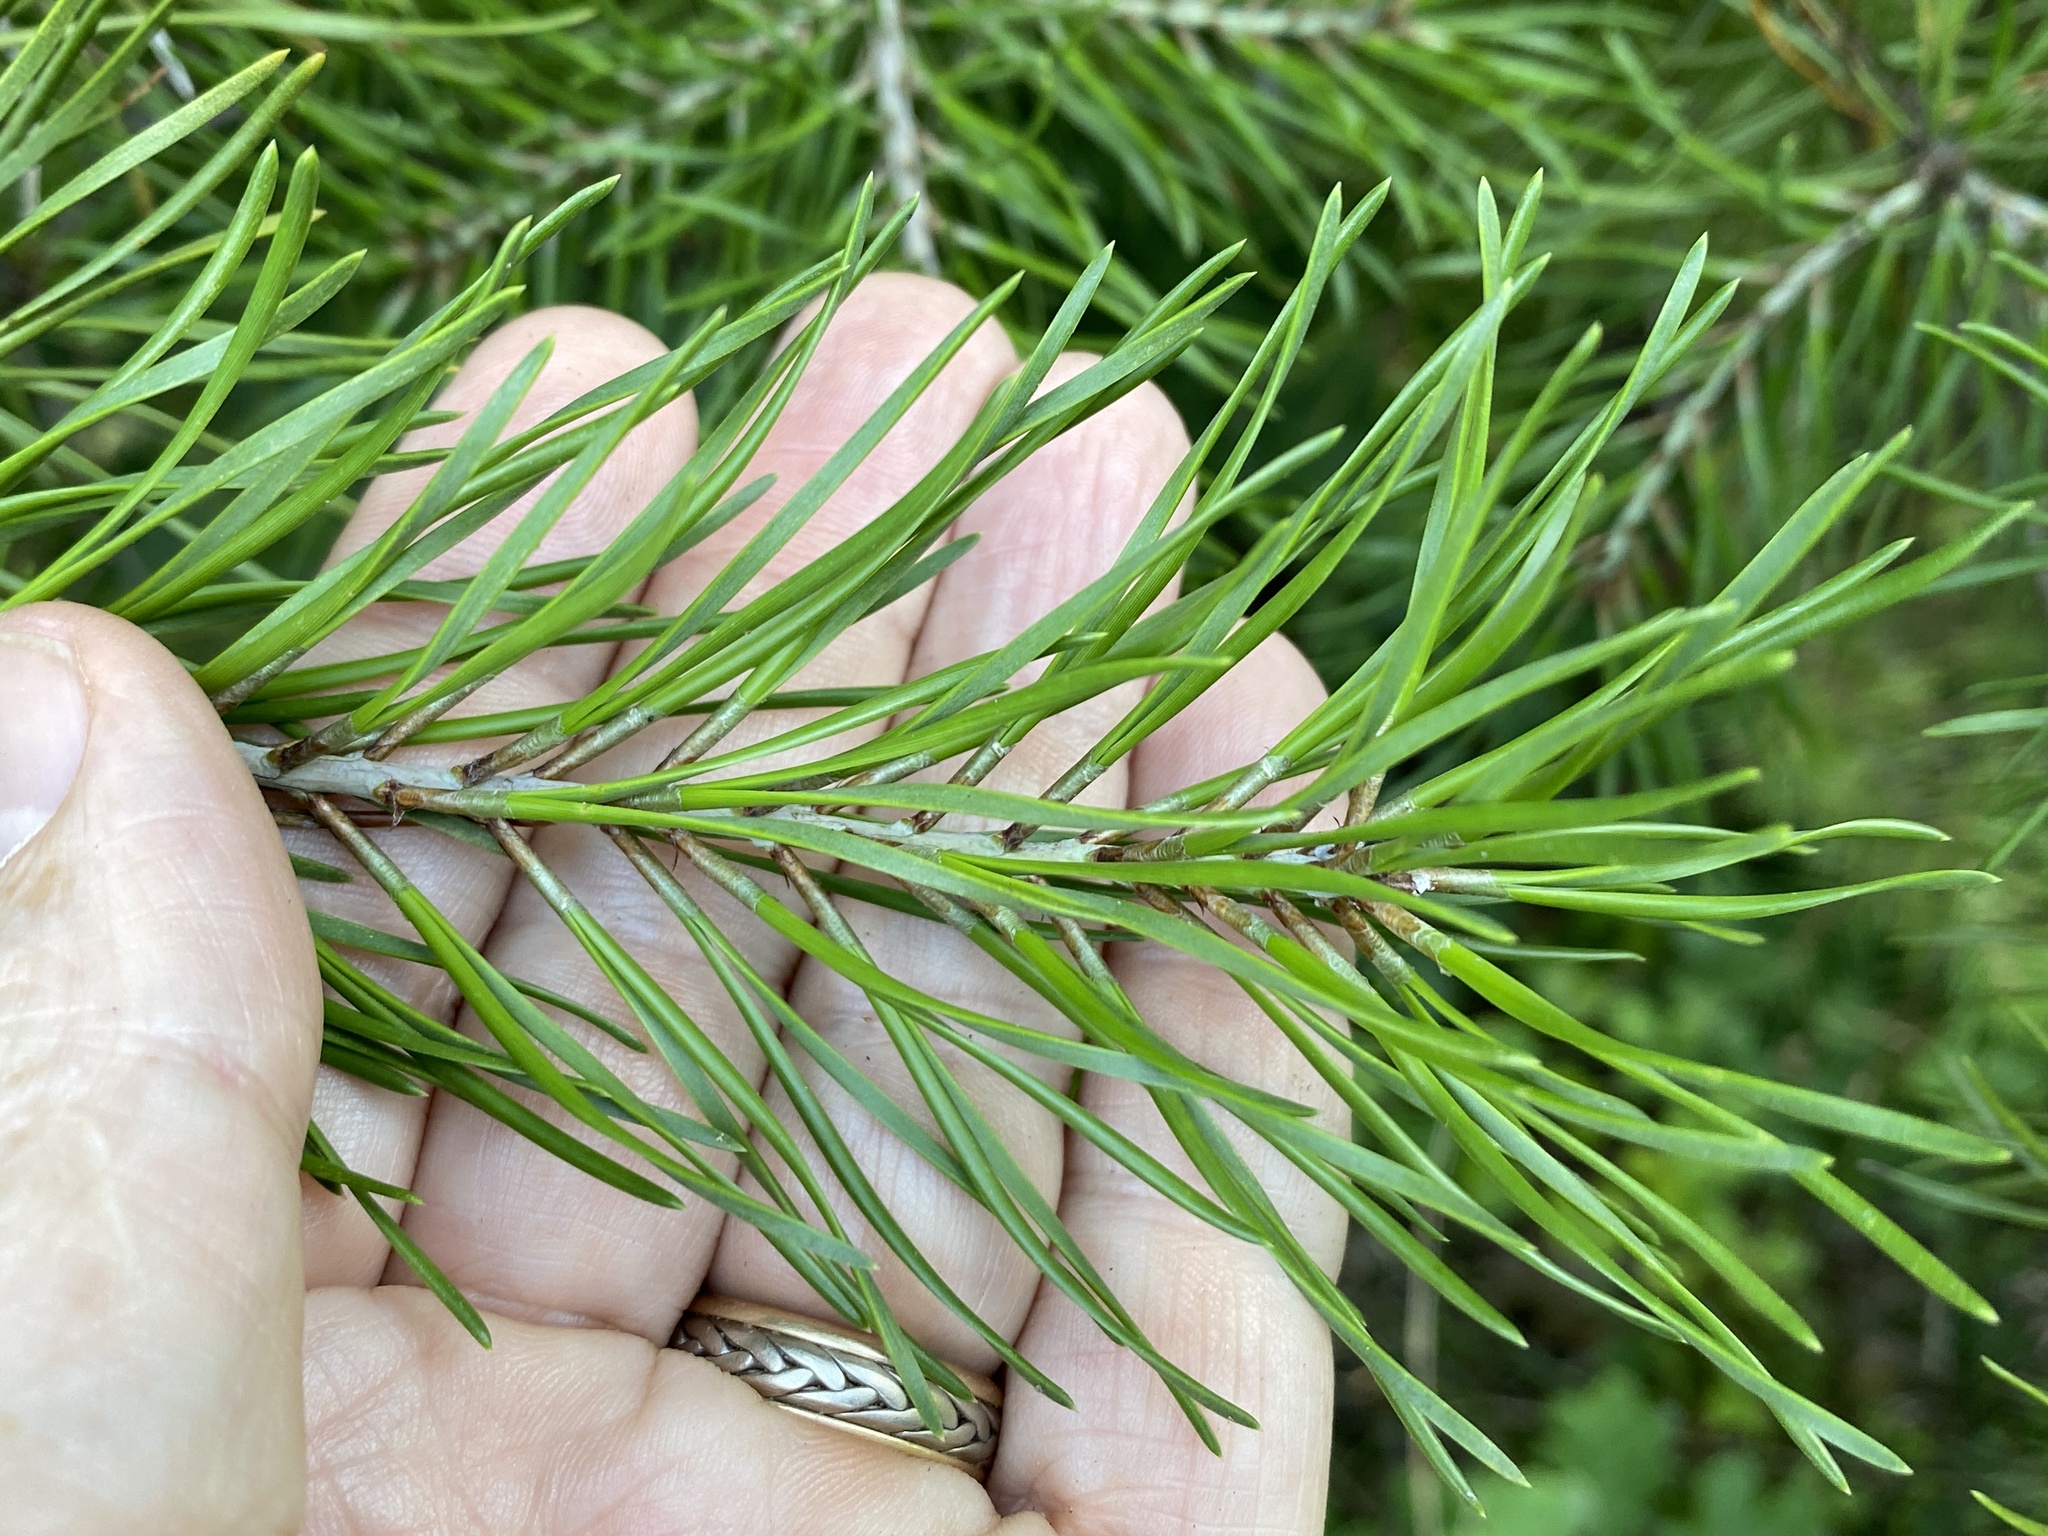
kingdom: Plantae
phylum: Tracheophyta
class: Pinopsida
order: Pinales
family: Pinaceae
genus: Pinus
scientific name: Pinus virginiana
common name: Scrub pine
